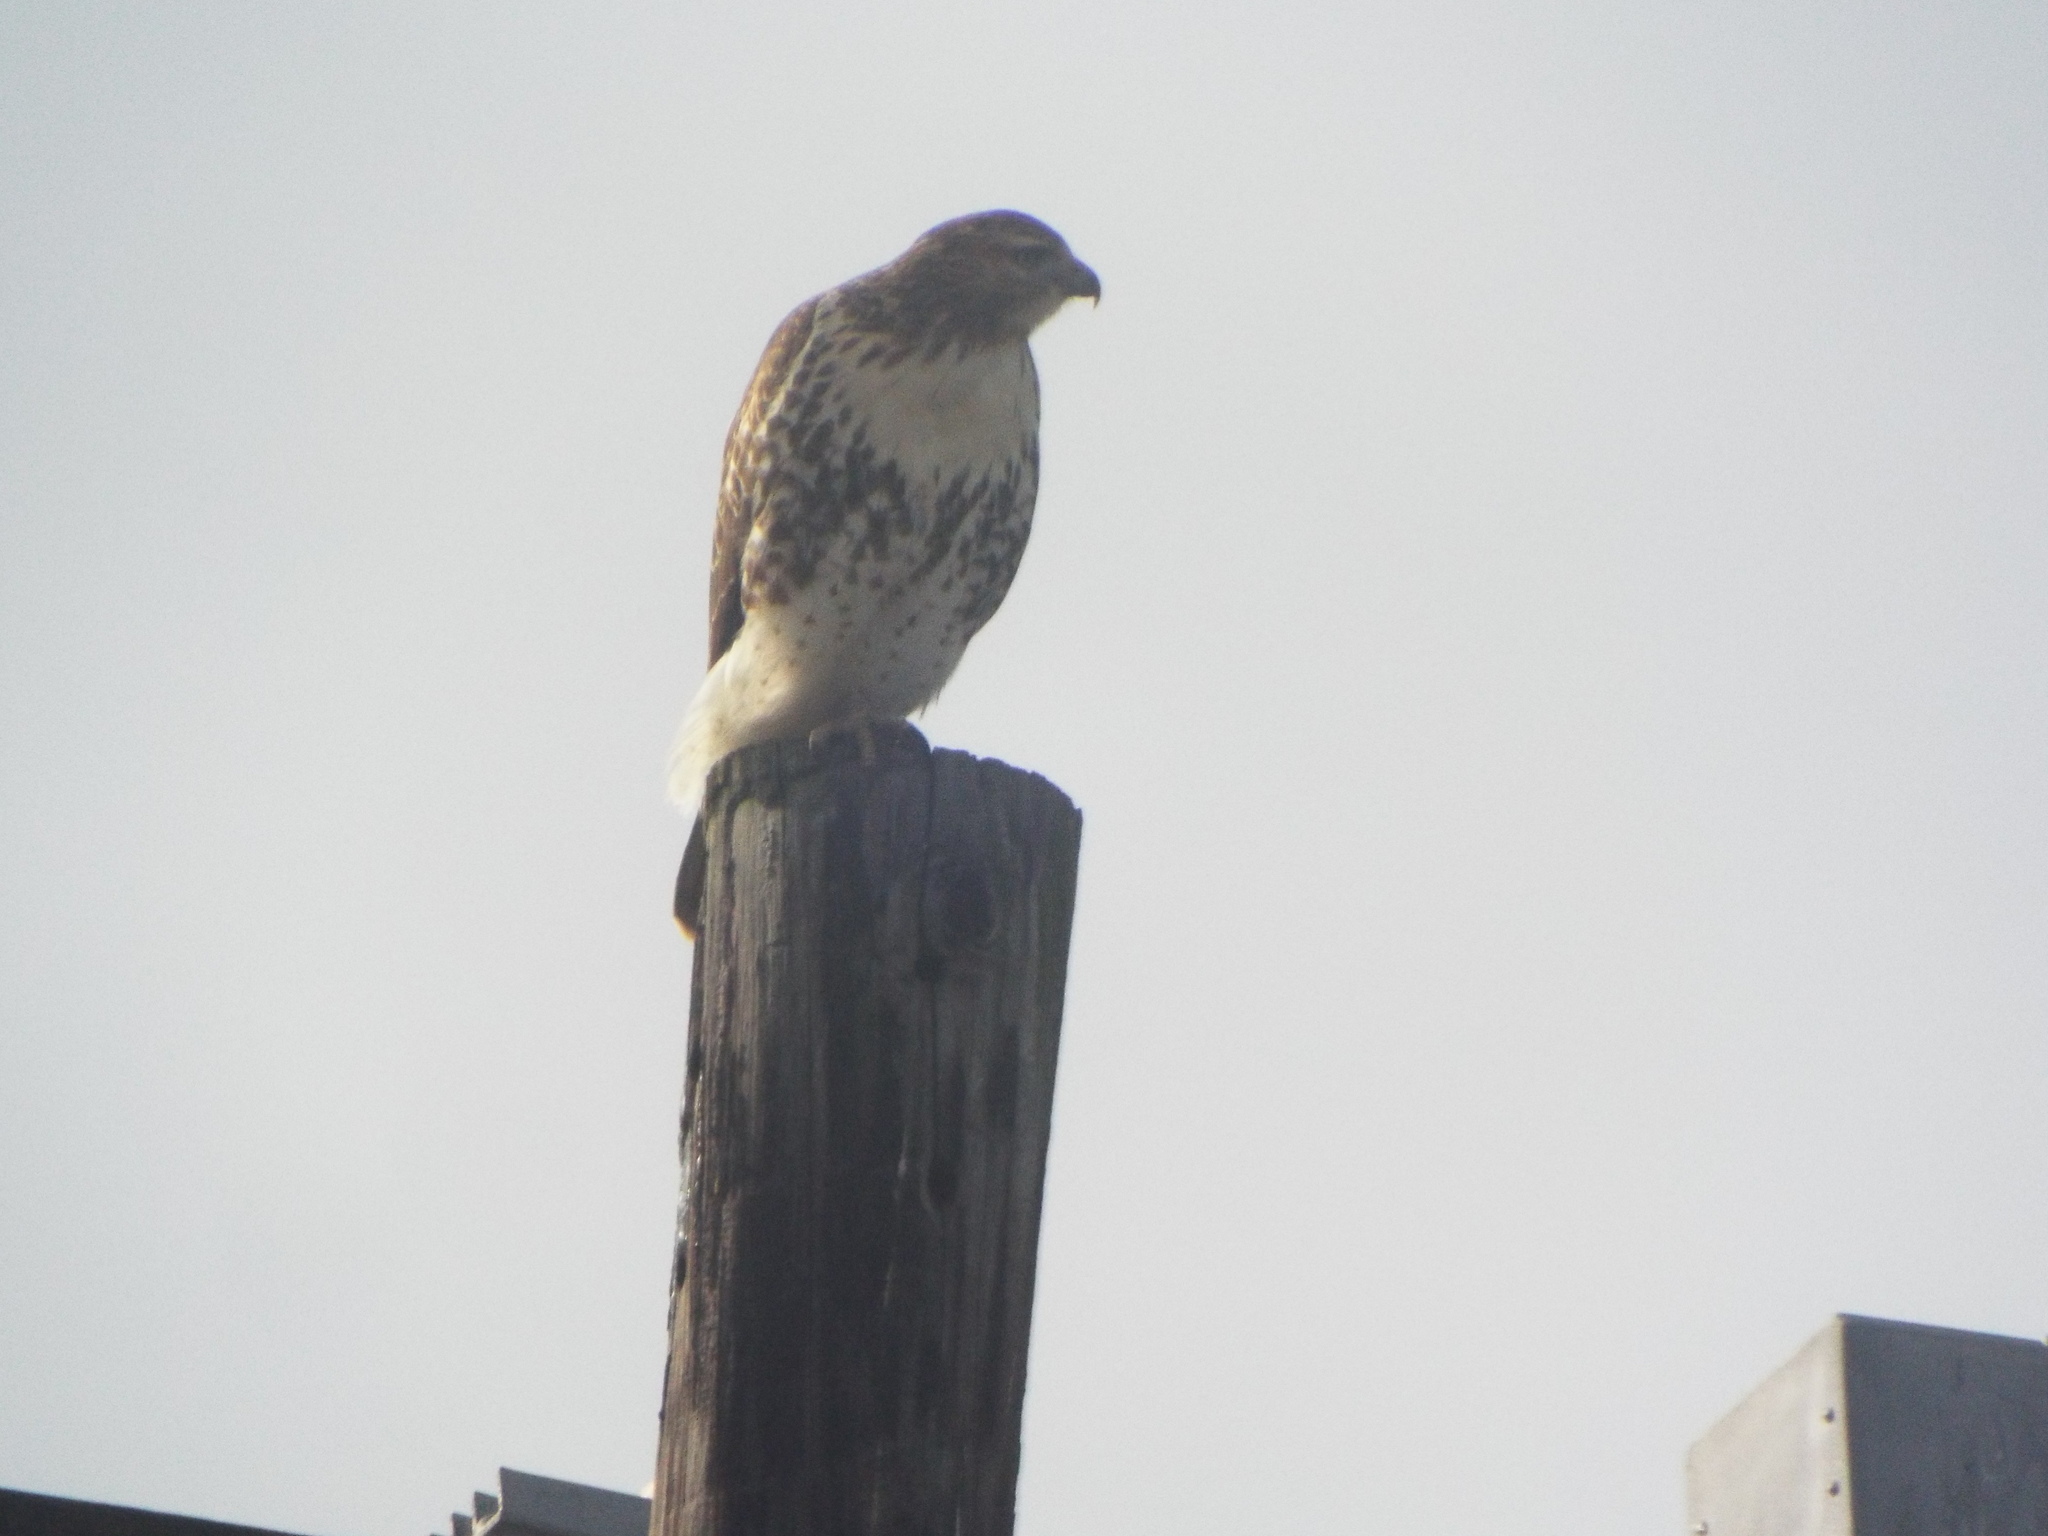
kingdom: Animalia
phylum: Chordata
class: Aves
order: Accipitriformes
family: Accipitridae
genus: Buteo
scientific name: Buteo jamaicensis
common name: Red-tailed hawk
